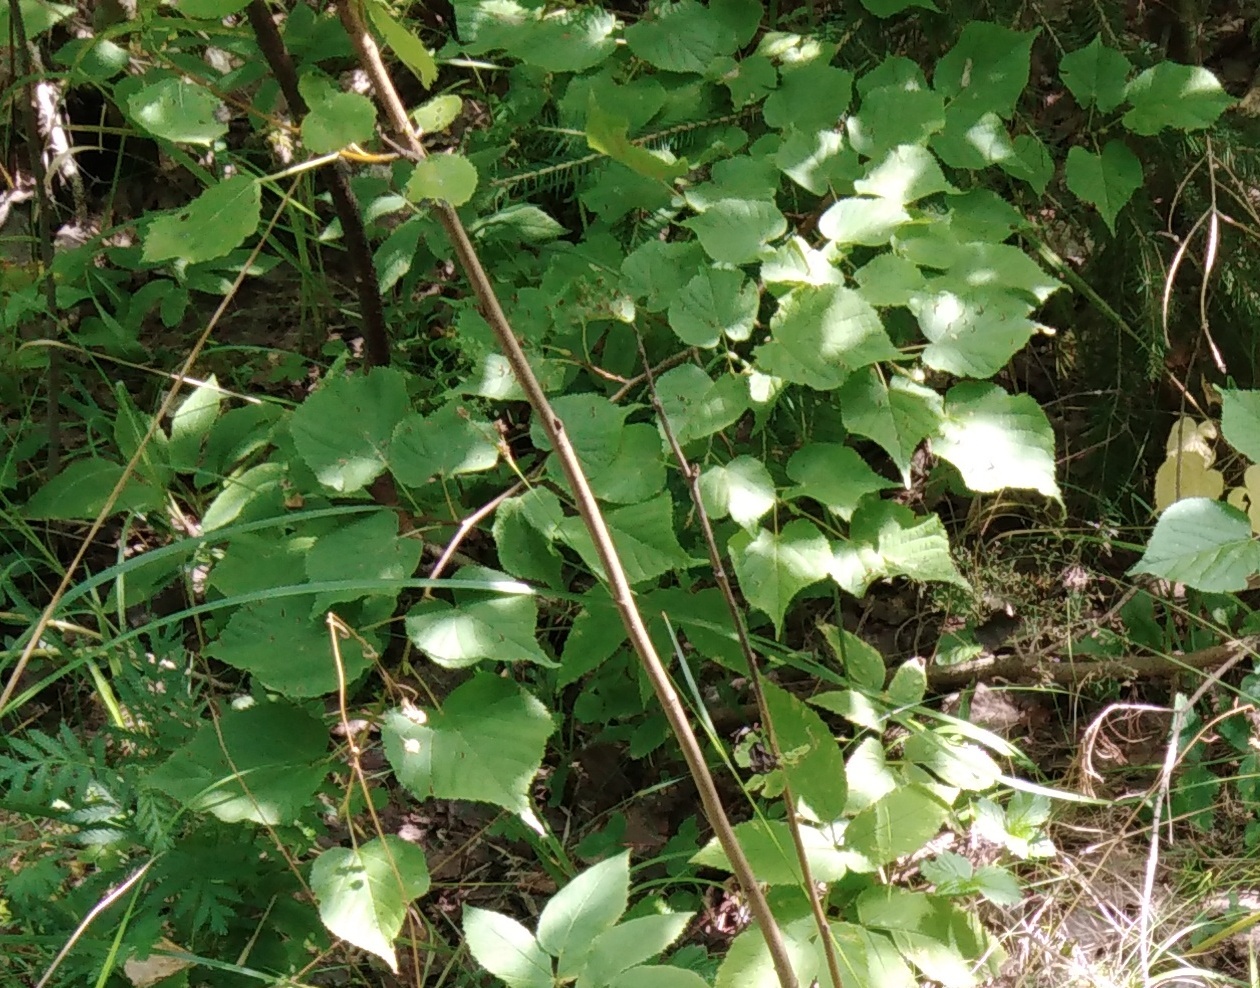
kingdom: Plantae
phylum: Tracheophyta
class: Magnoliopsida
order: Malvales
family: Malvaceae
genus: Tilia
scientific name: Tilia cordata
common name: Small-leaved lime
